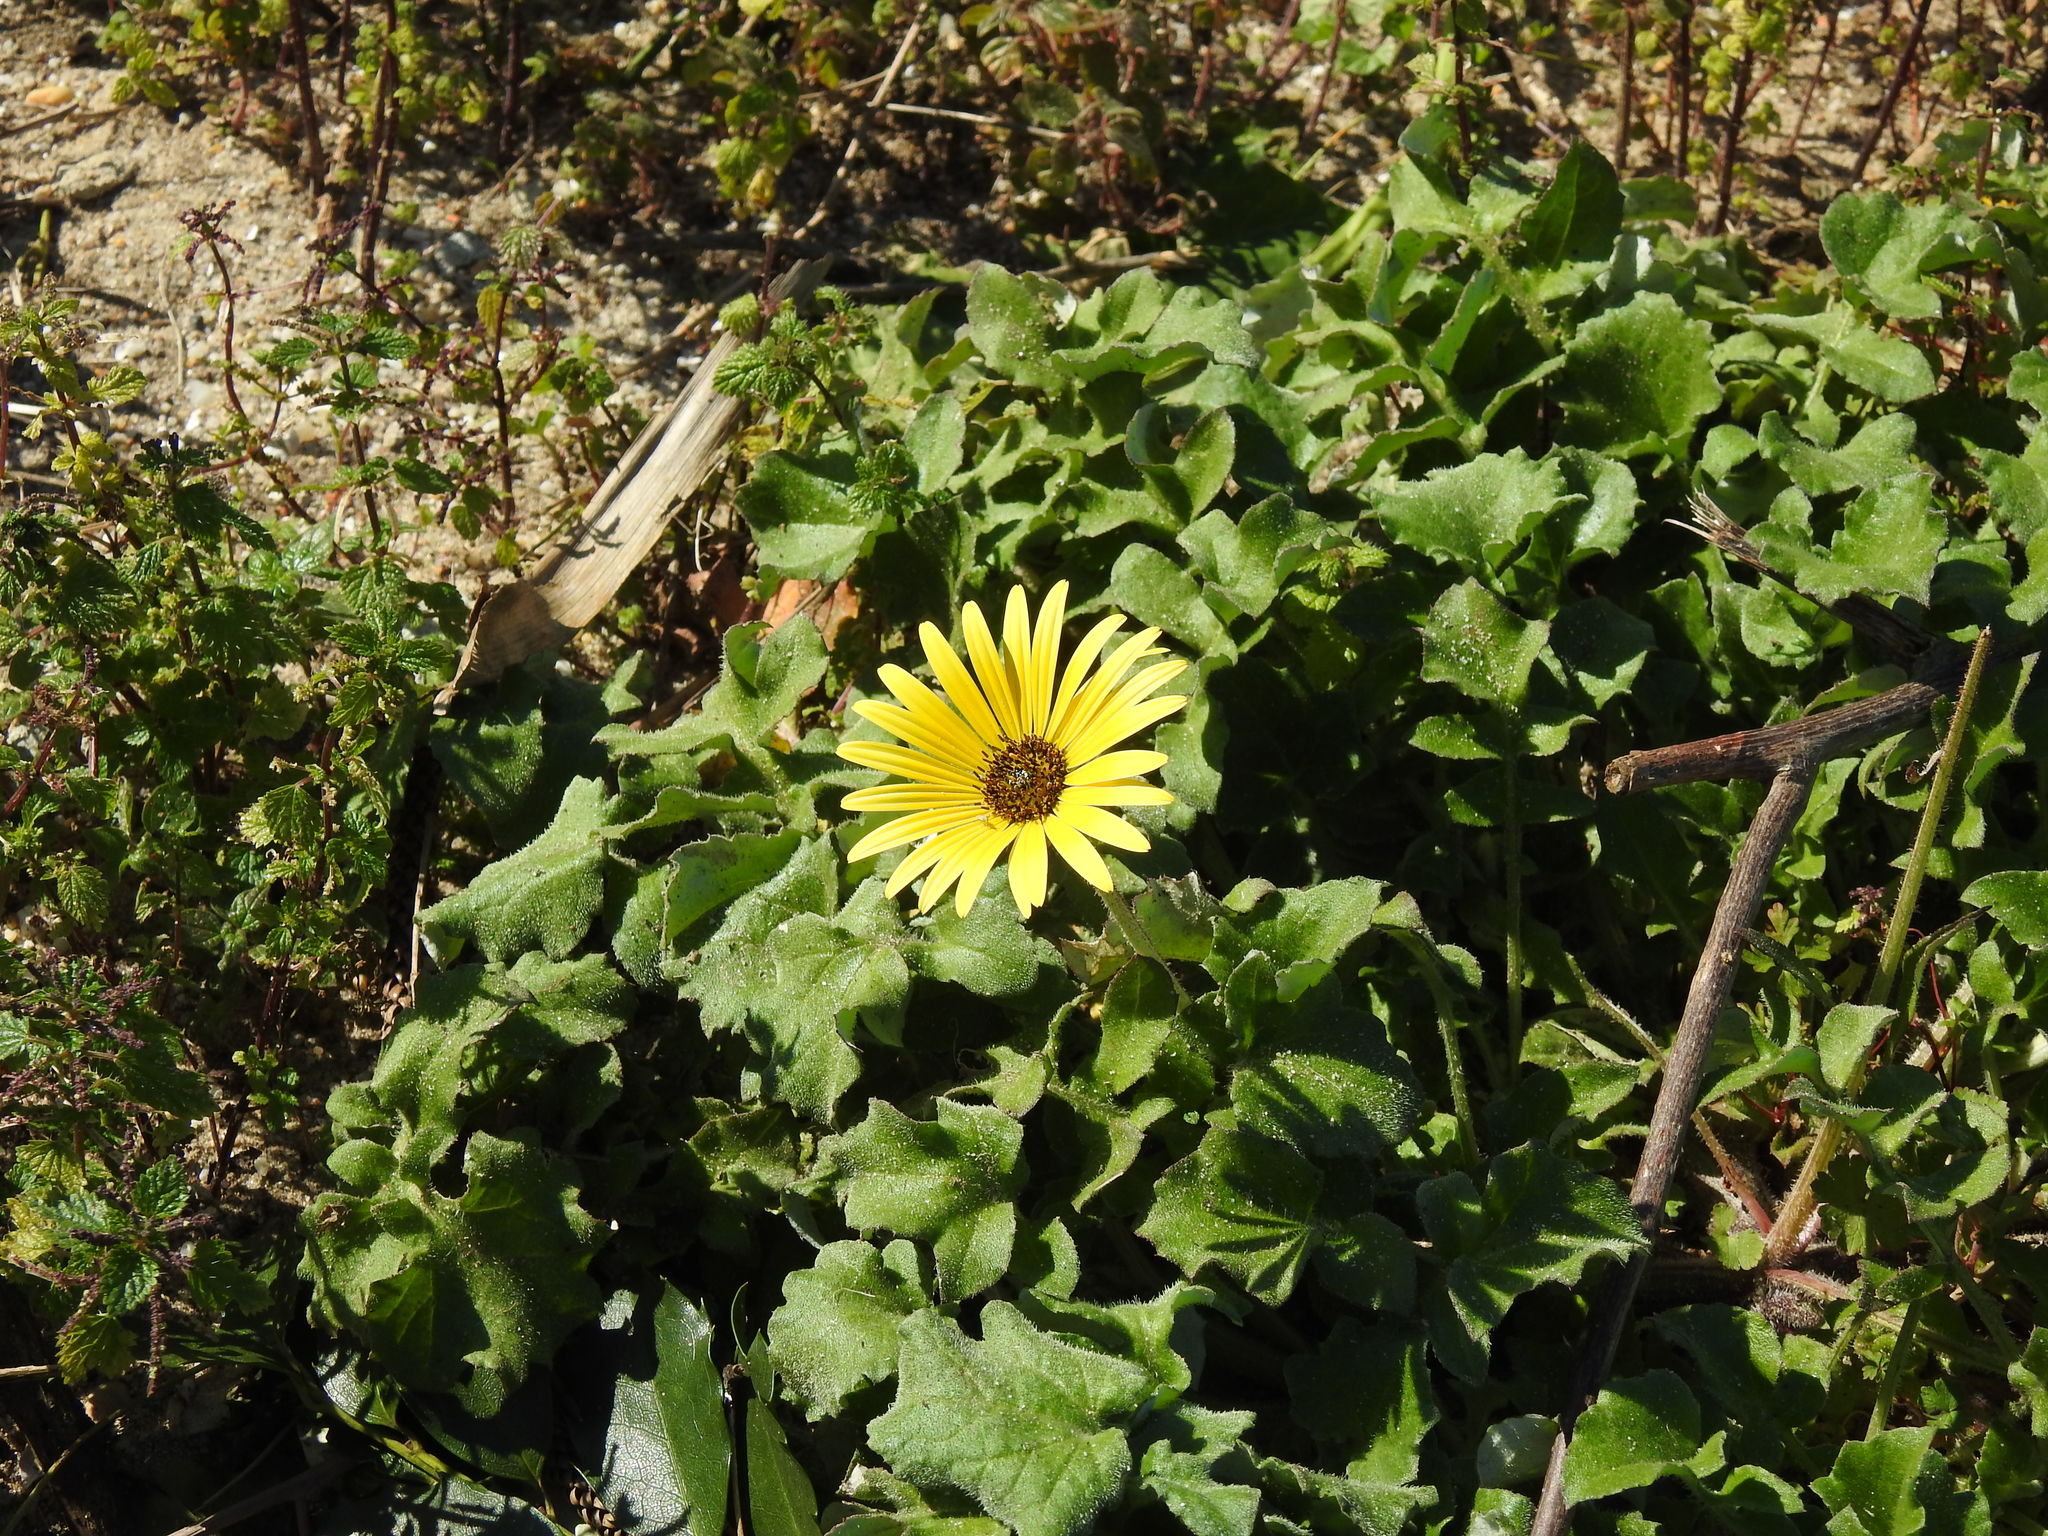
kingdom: Plantae
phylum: Tracheophyta
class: Magnoliopsida
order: Asterales
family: Asteraceae
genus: Arctotheca
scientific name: Arctotheca calendula
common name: Capeweed
